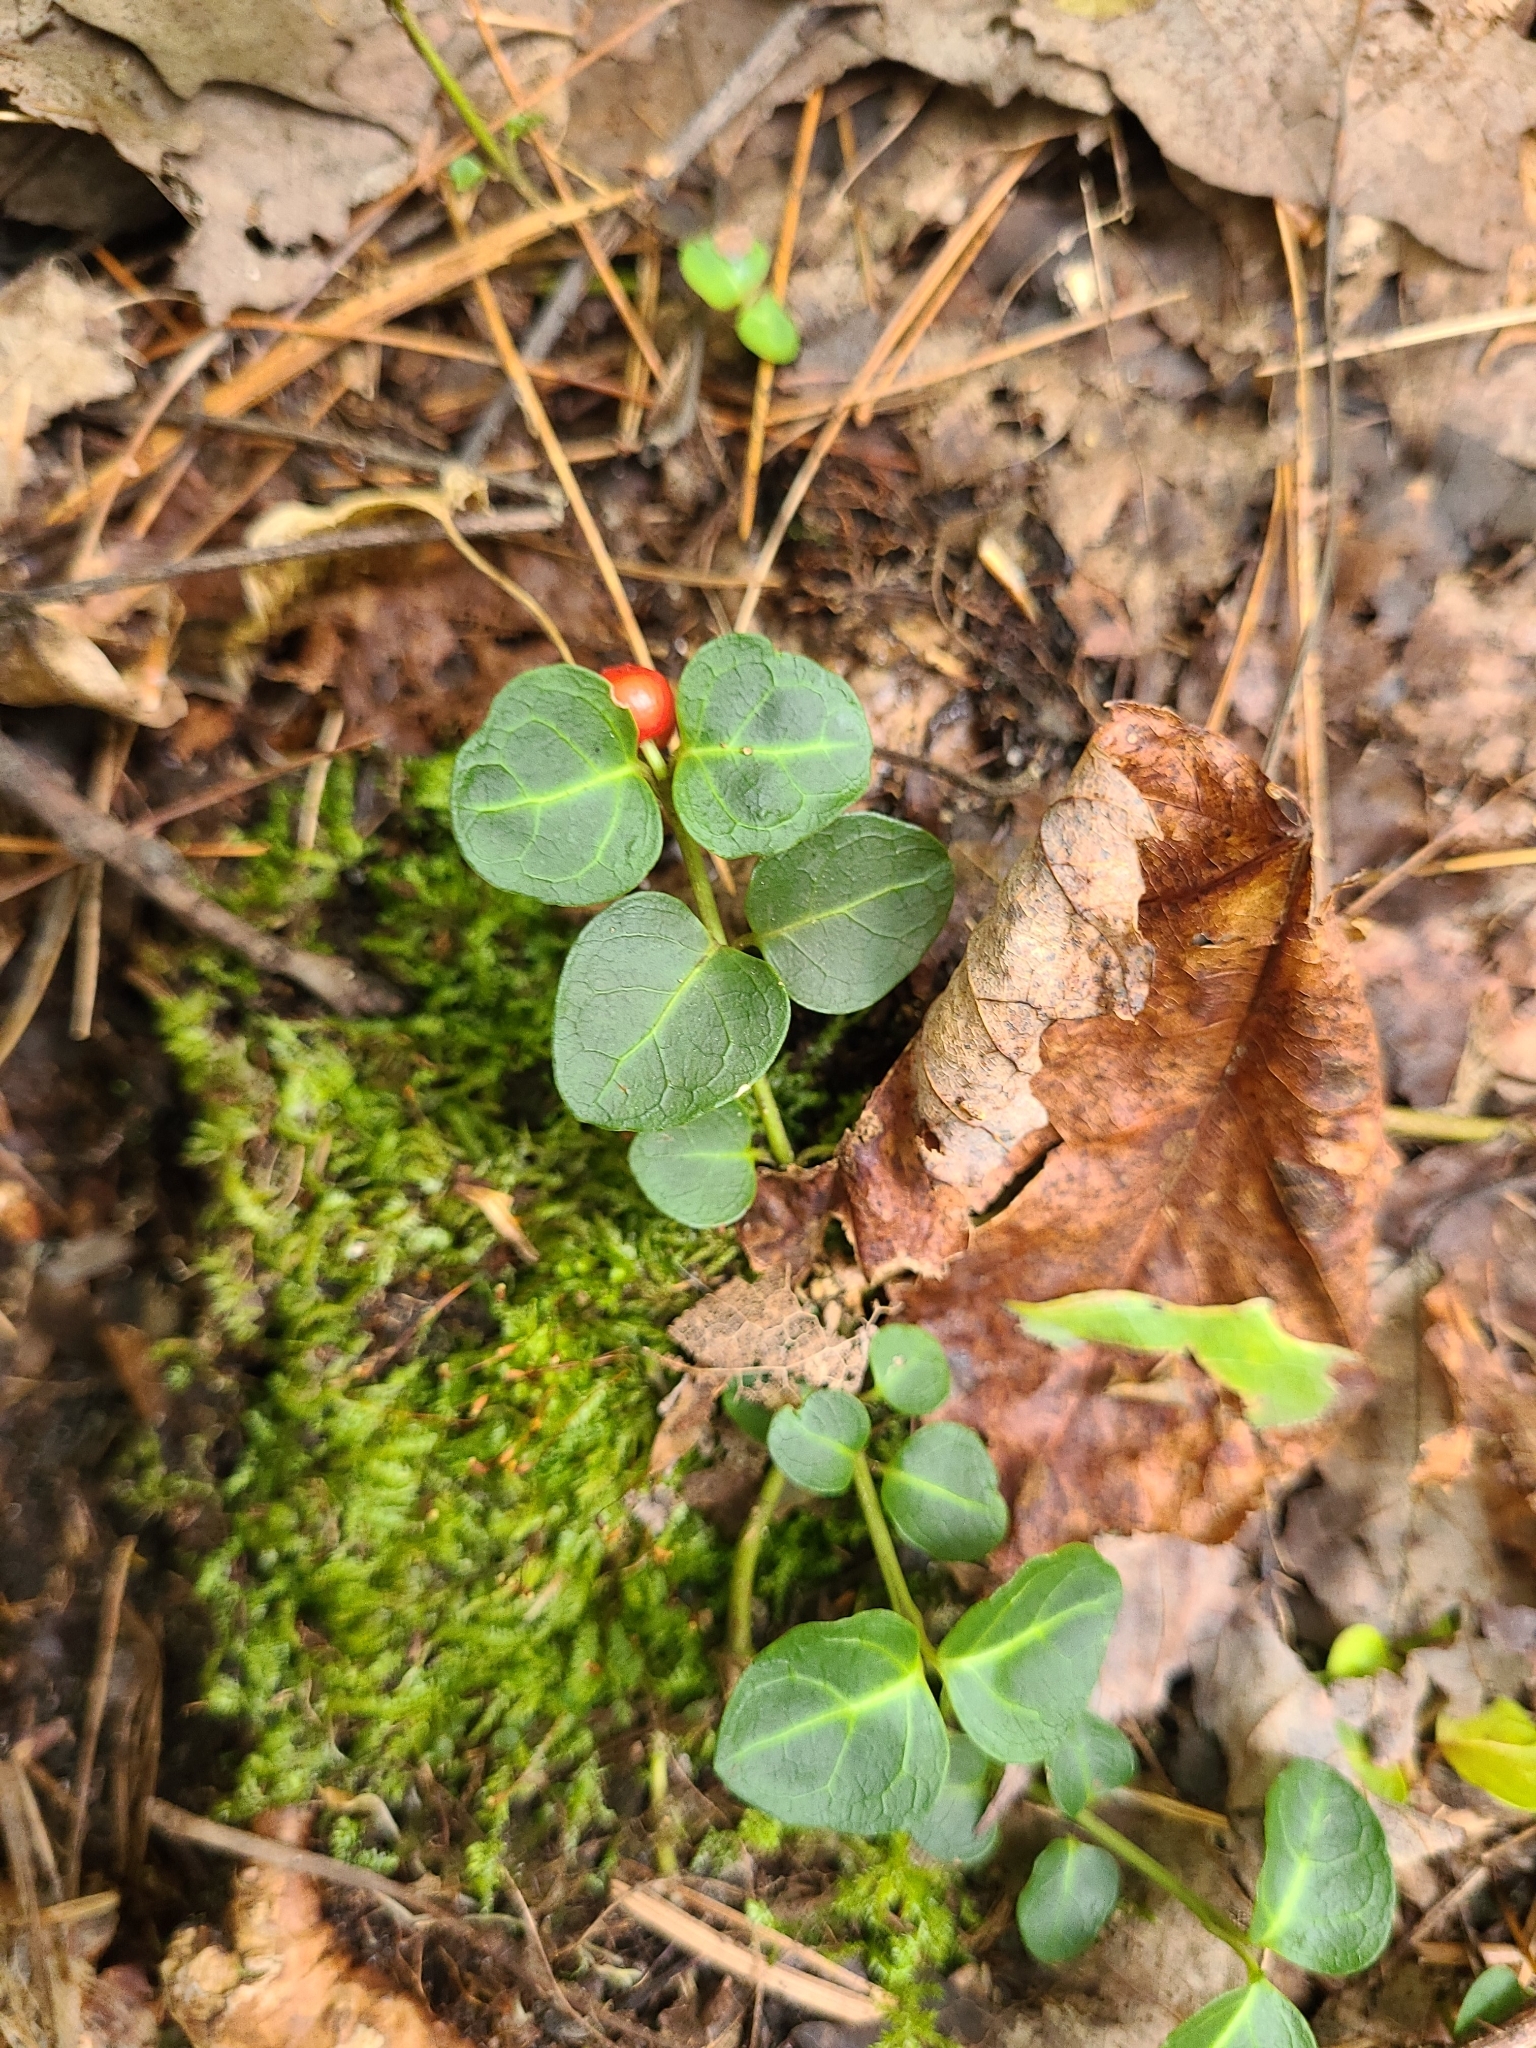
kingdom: Plantae
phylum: Tracheophyta
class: Magnoliopsida
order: Gentianales
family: Rubiaceae
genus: Mitchella
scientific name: Mitchella repens
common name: Partridge-berry
